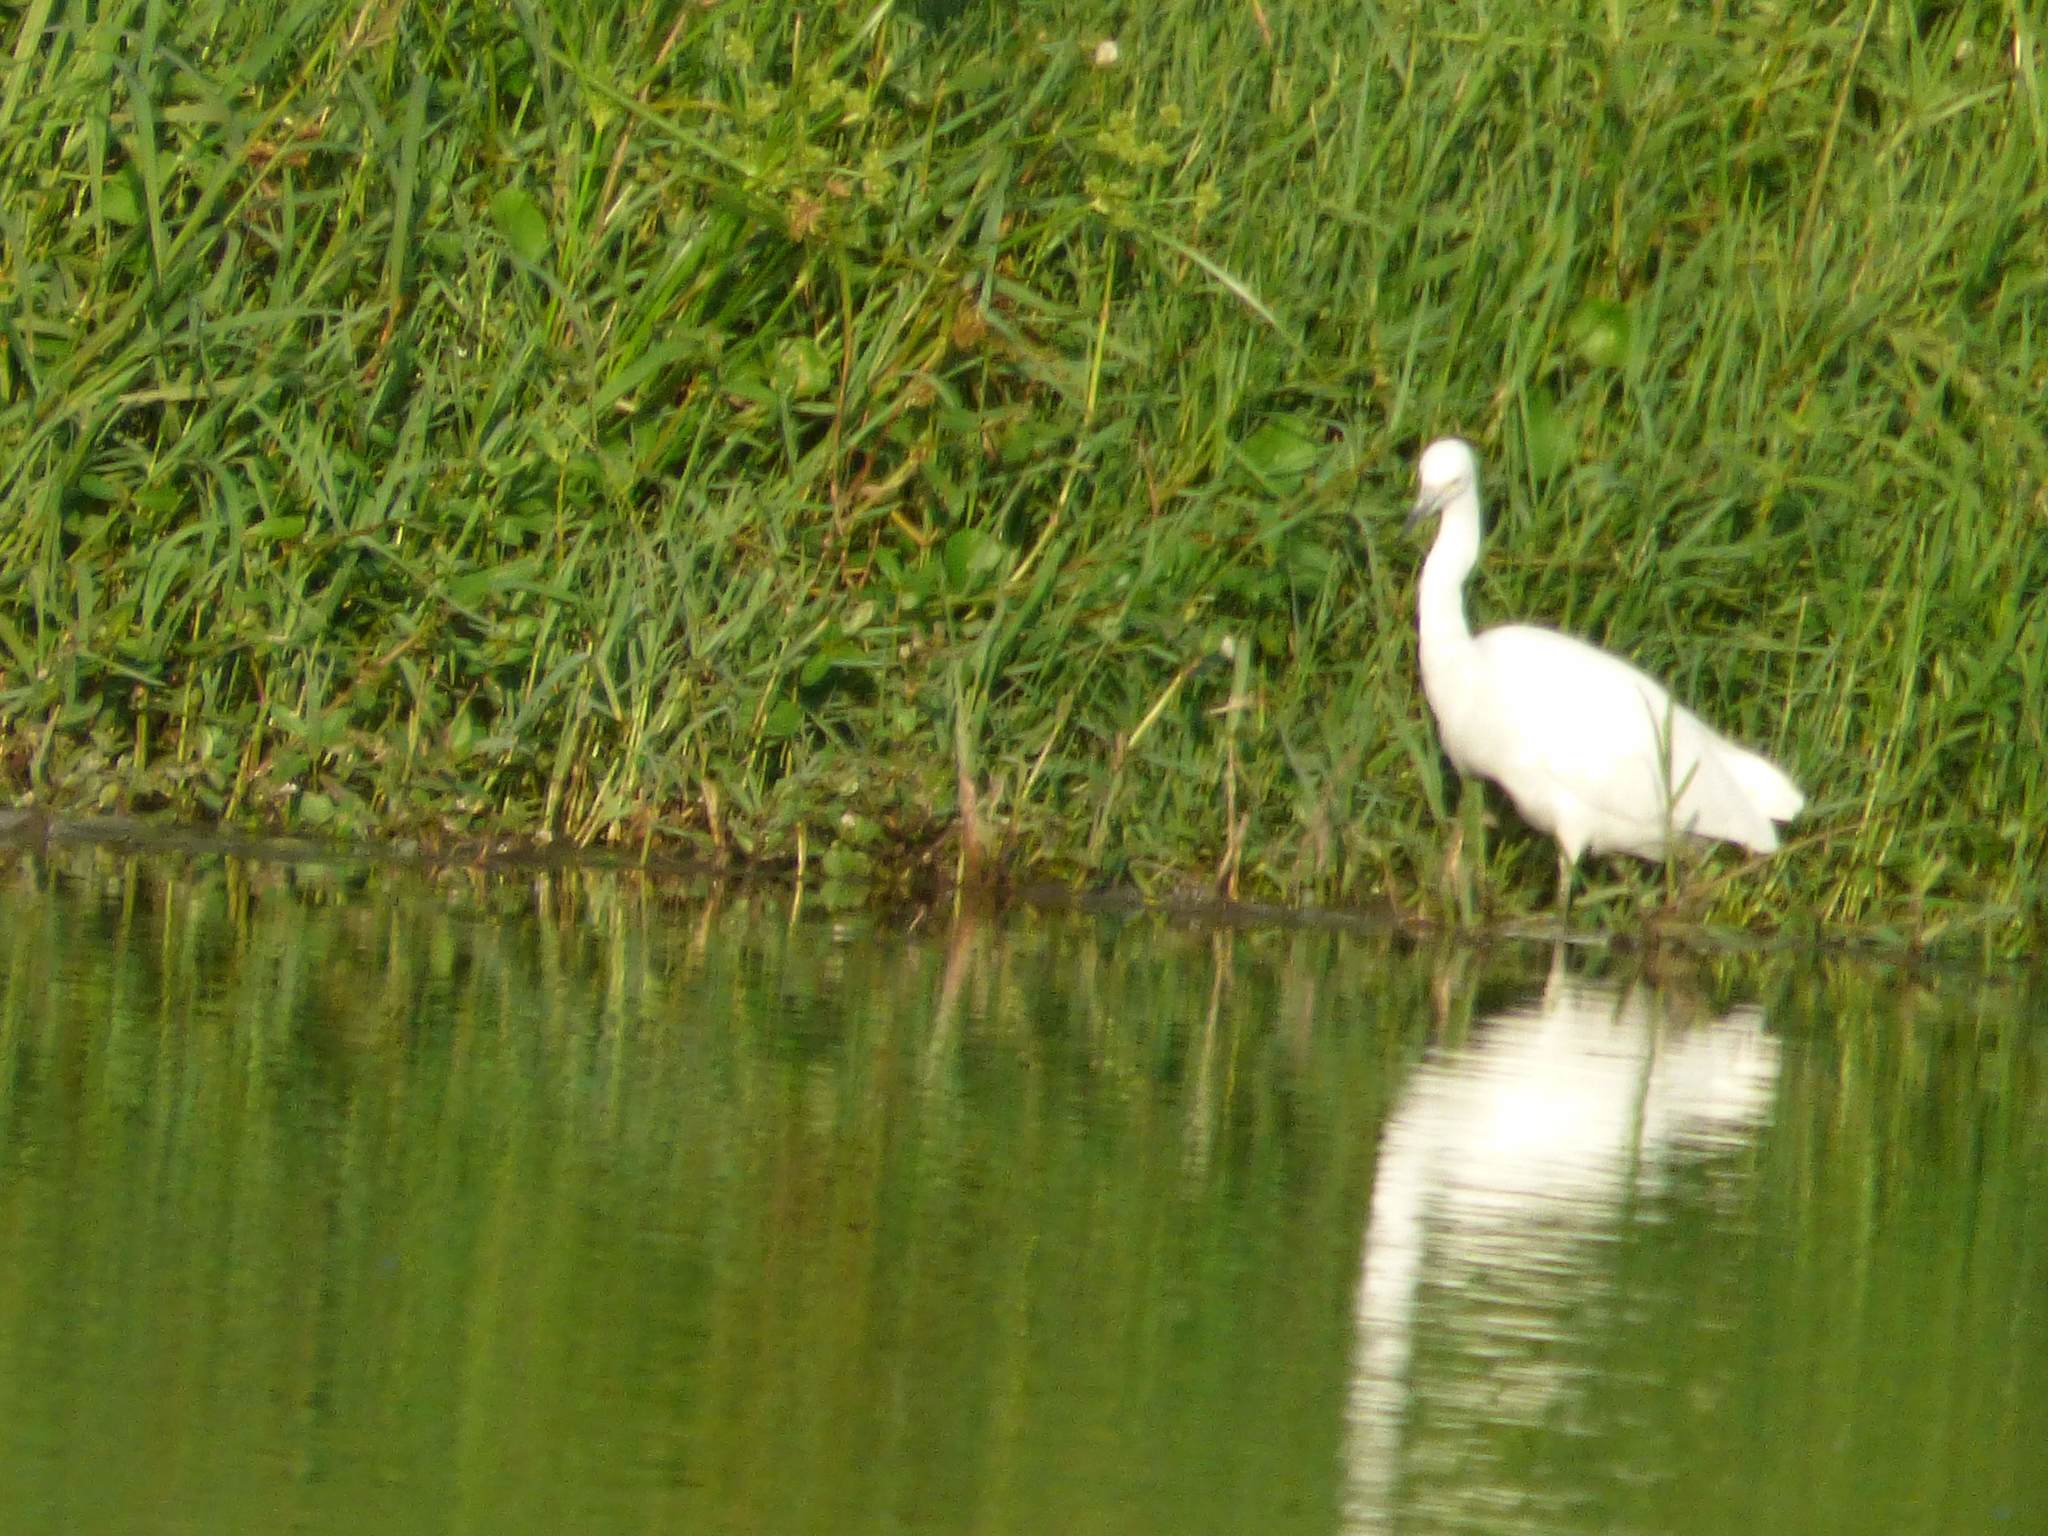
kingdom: Animalia
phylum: Chordata
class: Aves
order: Pelecaniformes
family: Ardeidae
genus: Egretta
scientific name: Egretta thula
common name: Snowy egret
